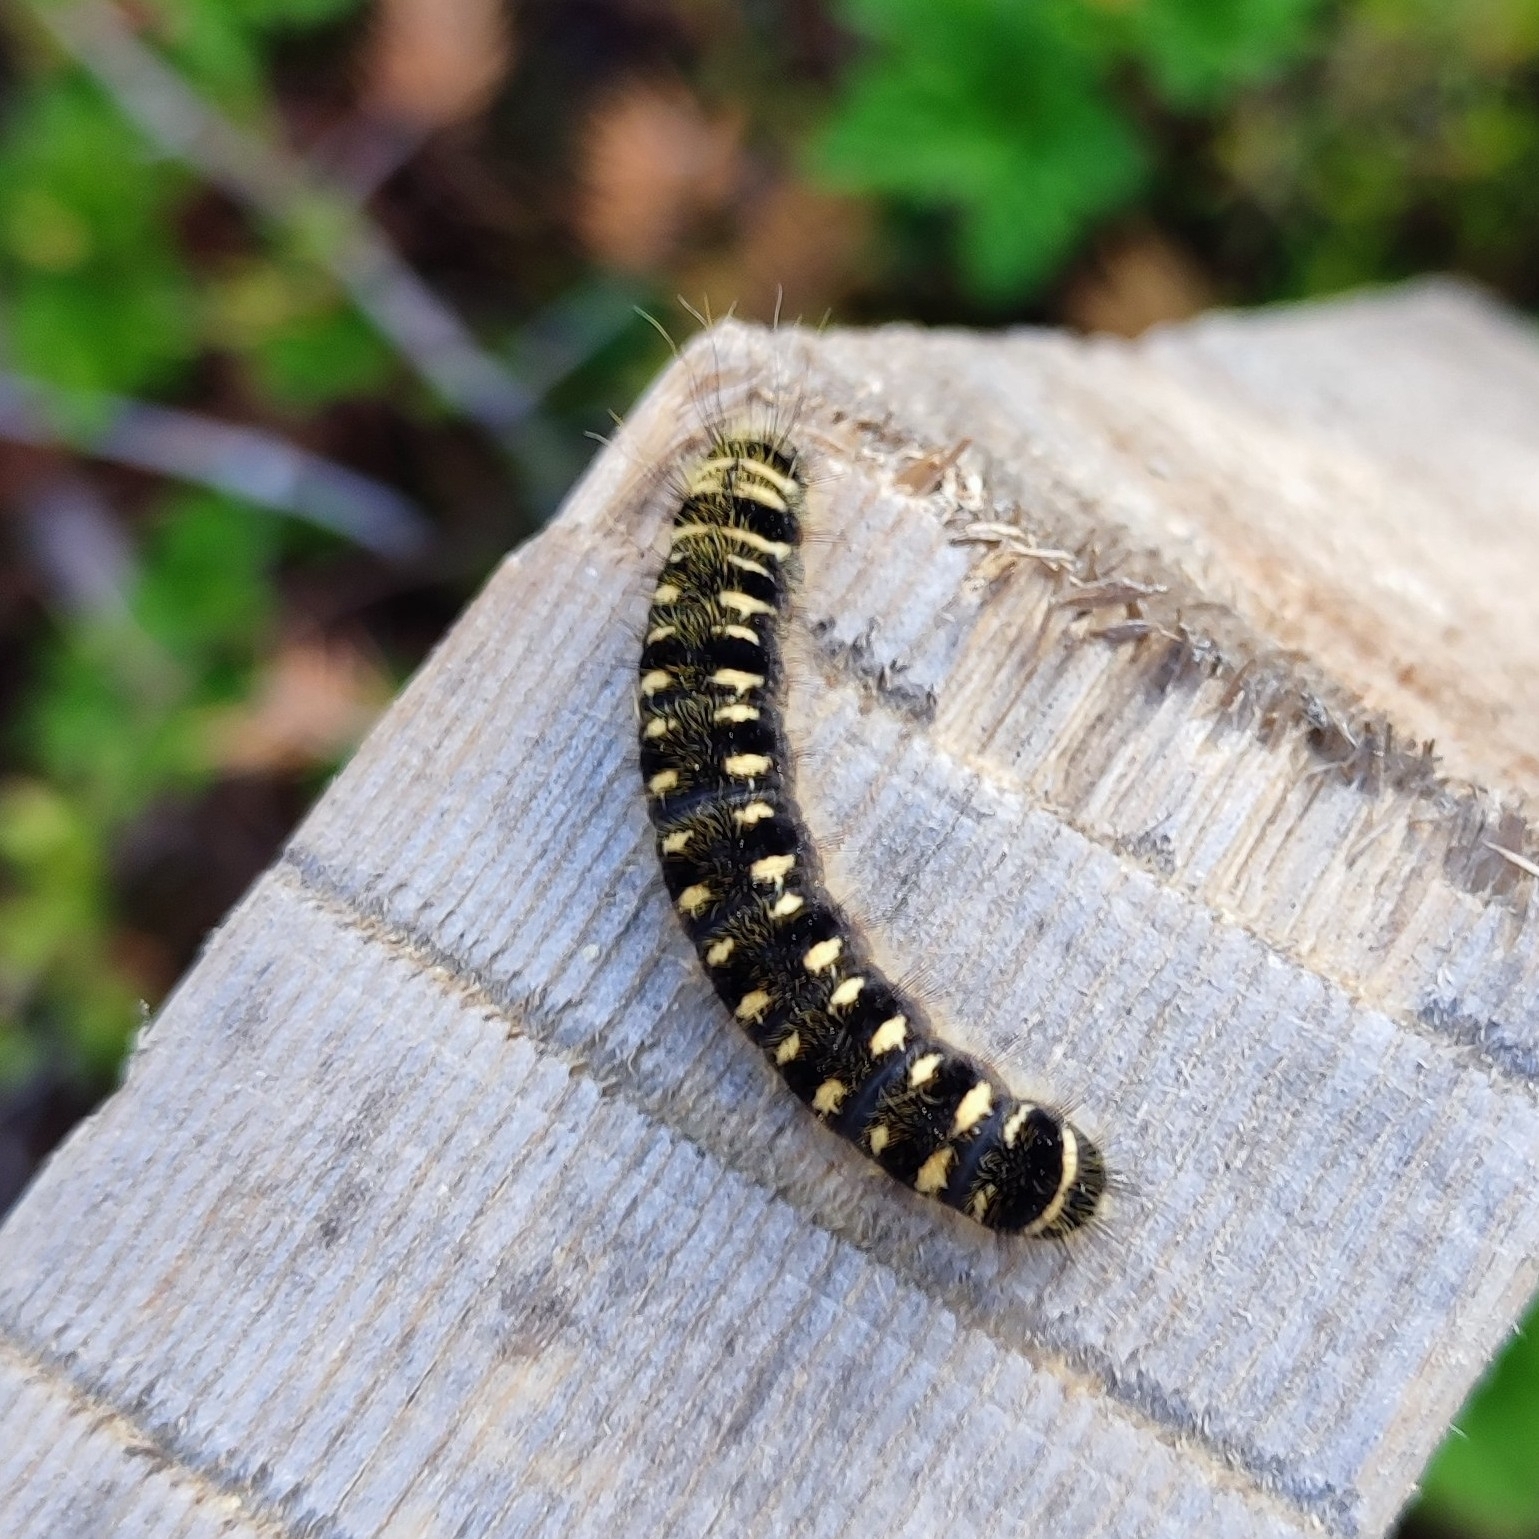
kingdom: Animalia
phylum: Arthropoda
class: Insecta
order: Lepidoptera
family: Lasiocampidae
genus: Eriogaster
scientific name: Eriogaster arbusculae
